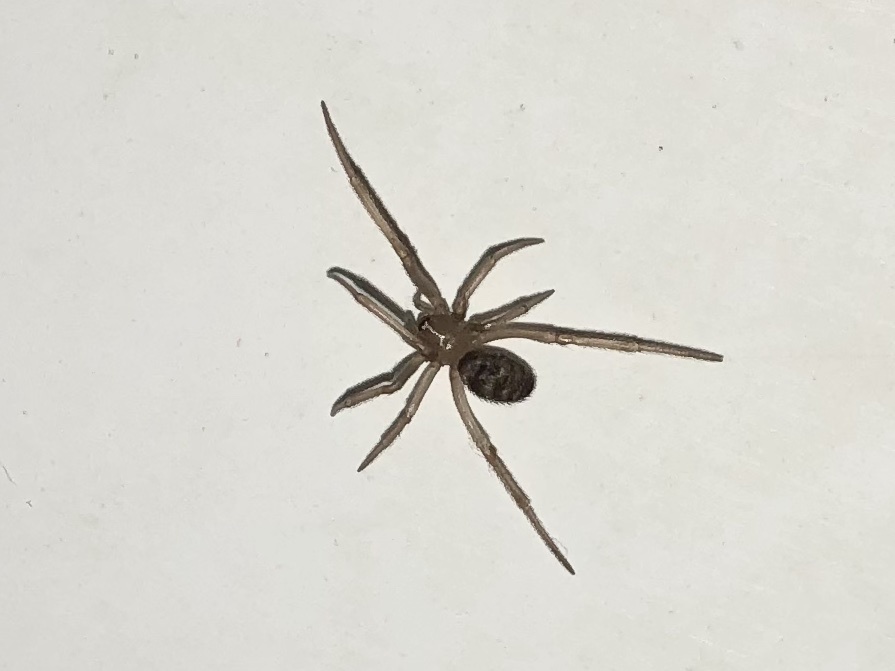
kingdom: Animalia
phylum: Arthropoda
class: Arachnida
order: Araneae
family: Theridiidae
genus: Steatoda
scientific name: Steatoda grossa
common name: False black widow
